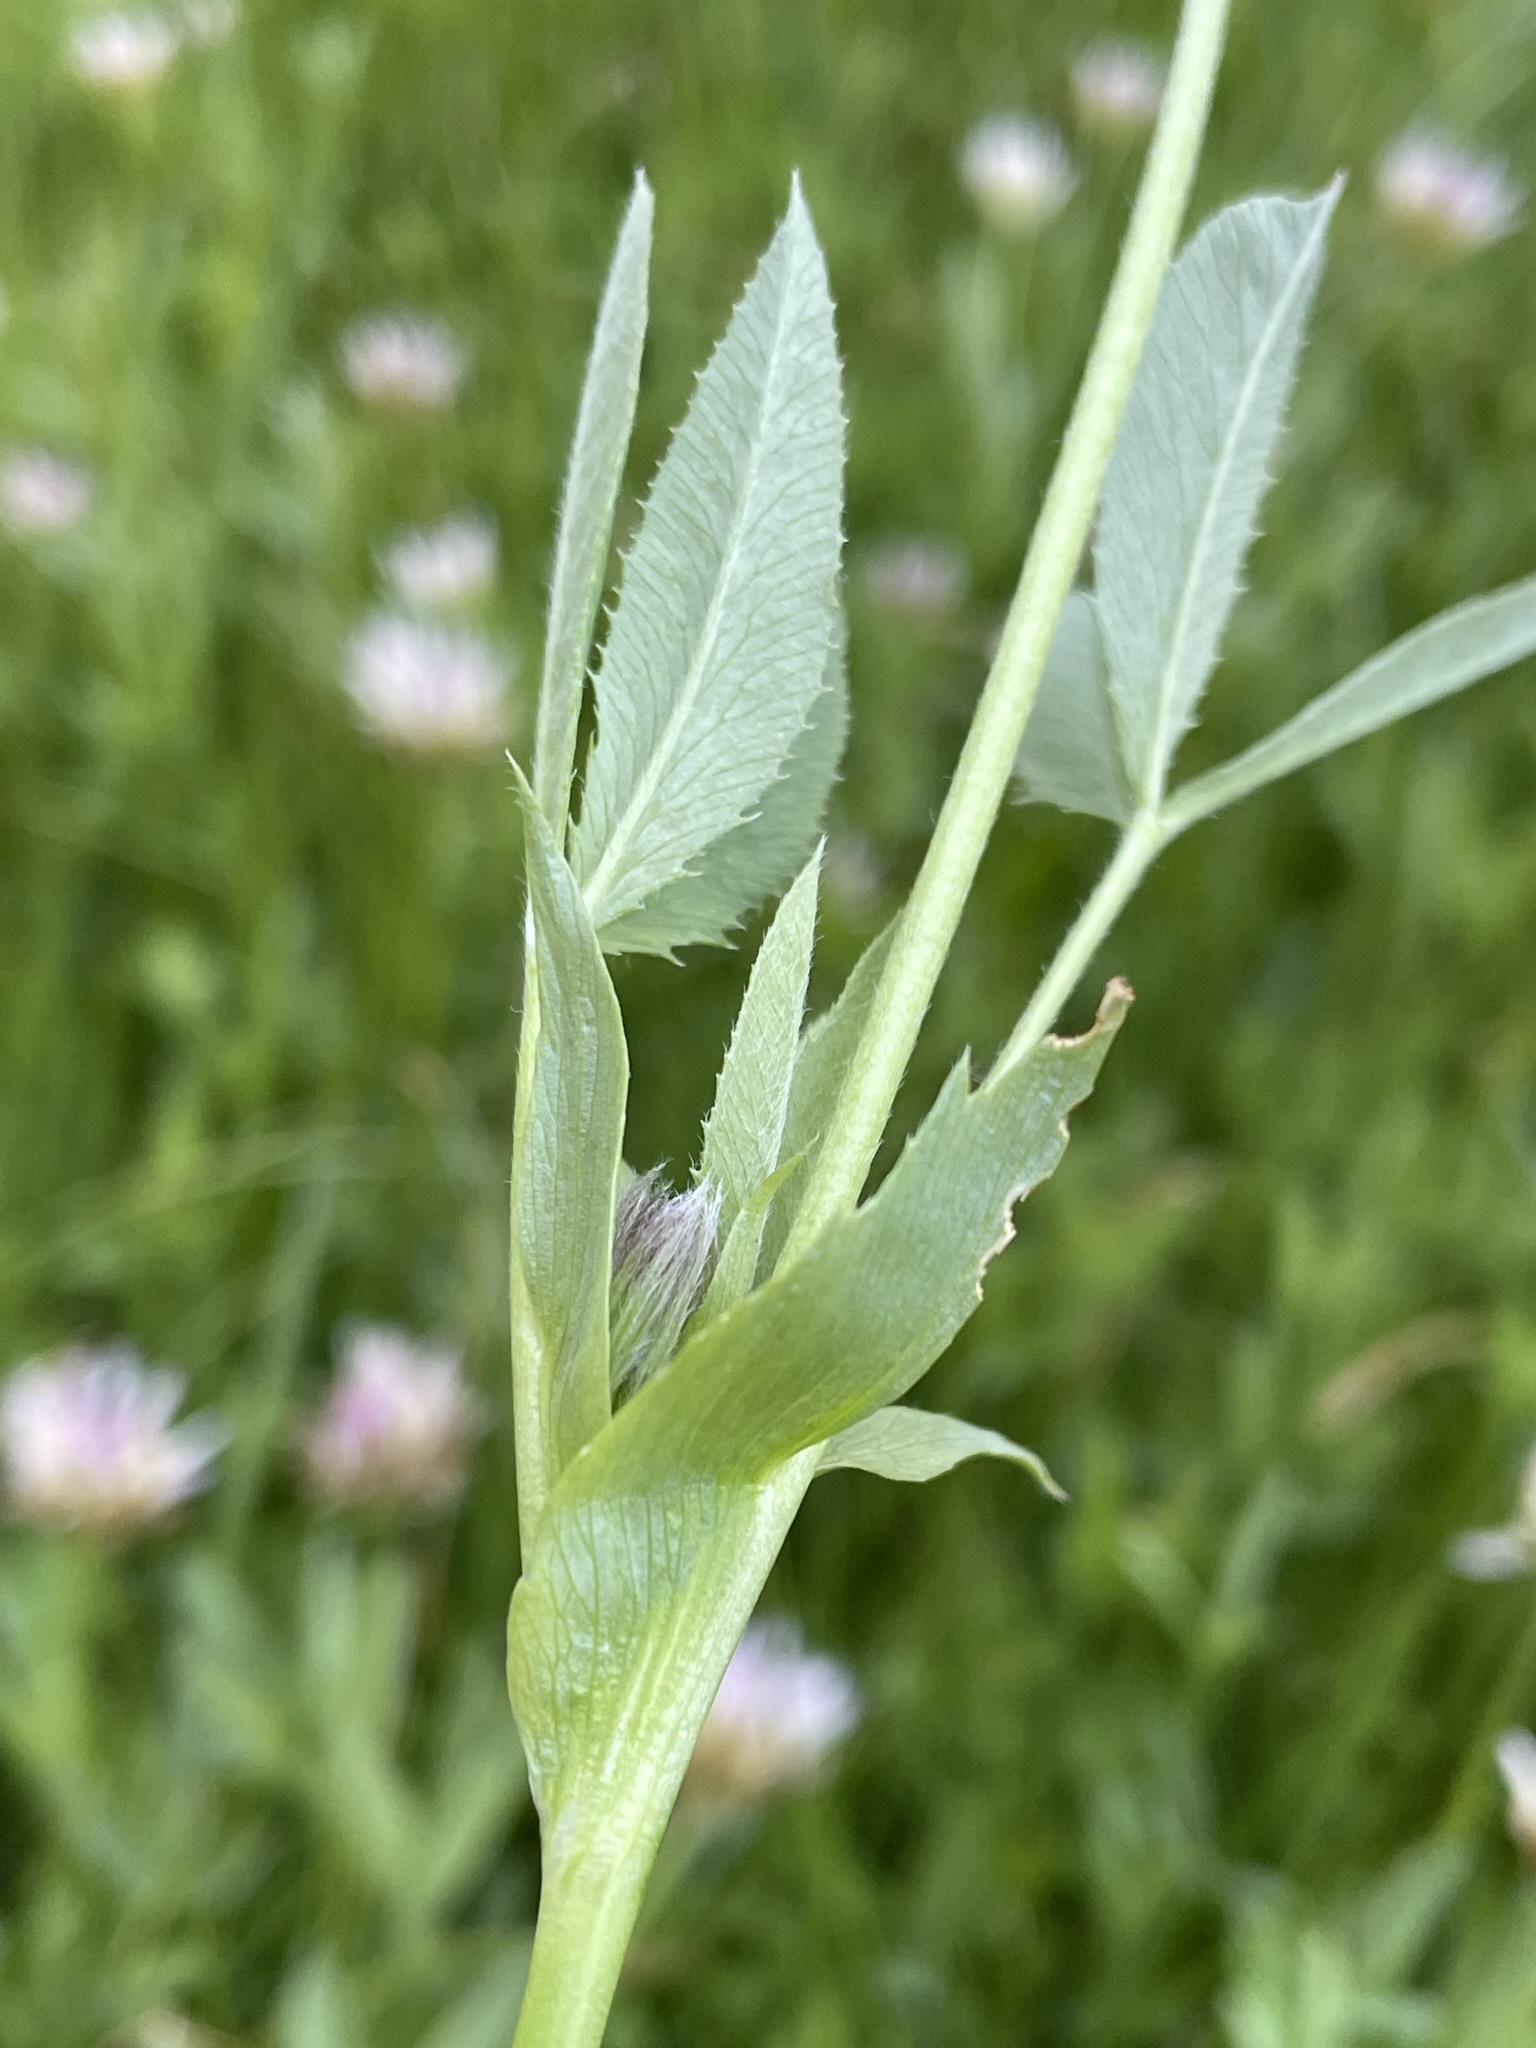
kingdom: Plantae
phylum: Tracheophyta
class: Magnoliopsida
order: Fabales
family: Fabaceae
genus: Trifolium
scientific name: Trifolium longipes
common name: Long-stalk clover
